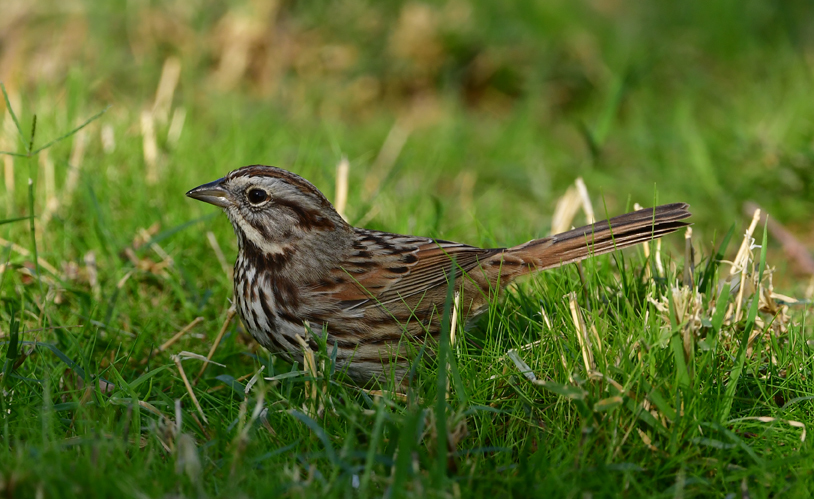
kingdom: Animalia
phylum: Chordata
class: Aves
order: Passeriformes
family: Passerellidae
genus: Melospiza
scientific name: Melospiza melodia
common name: Song sparrow
